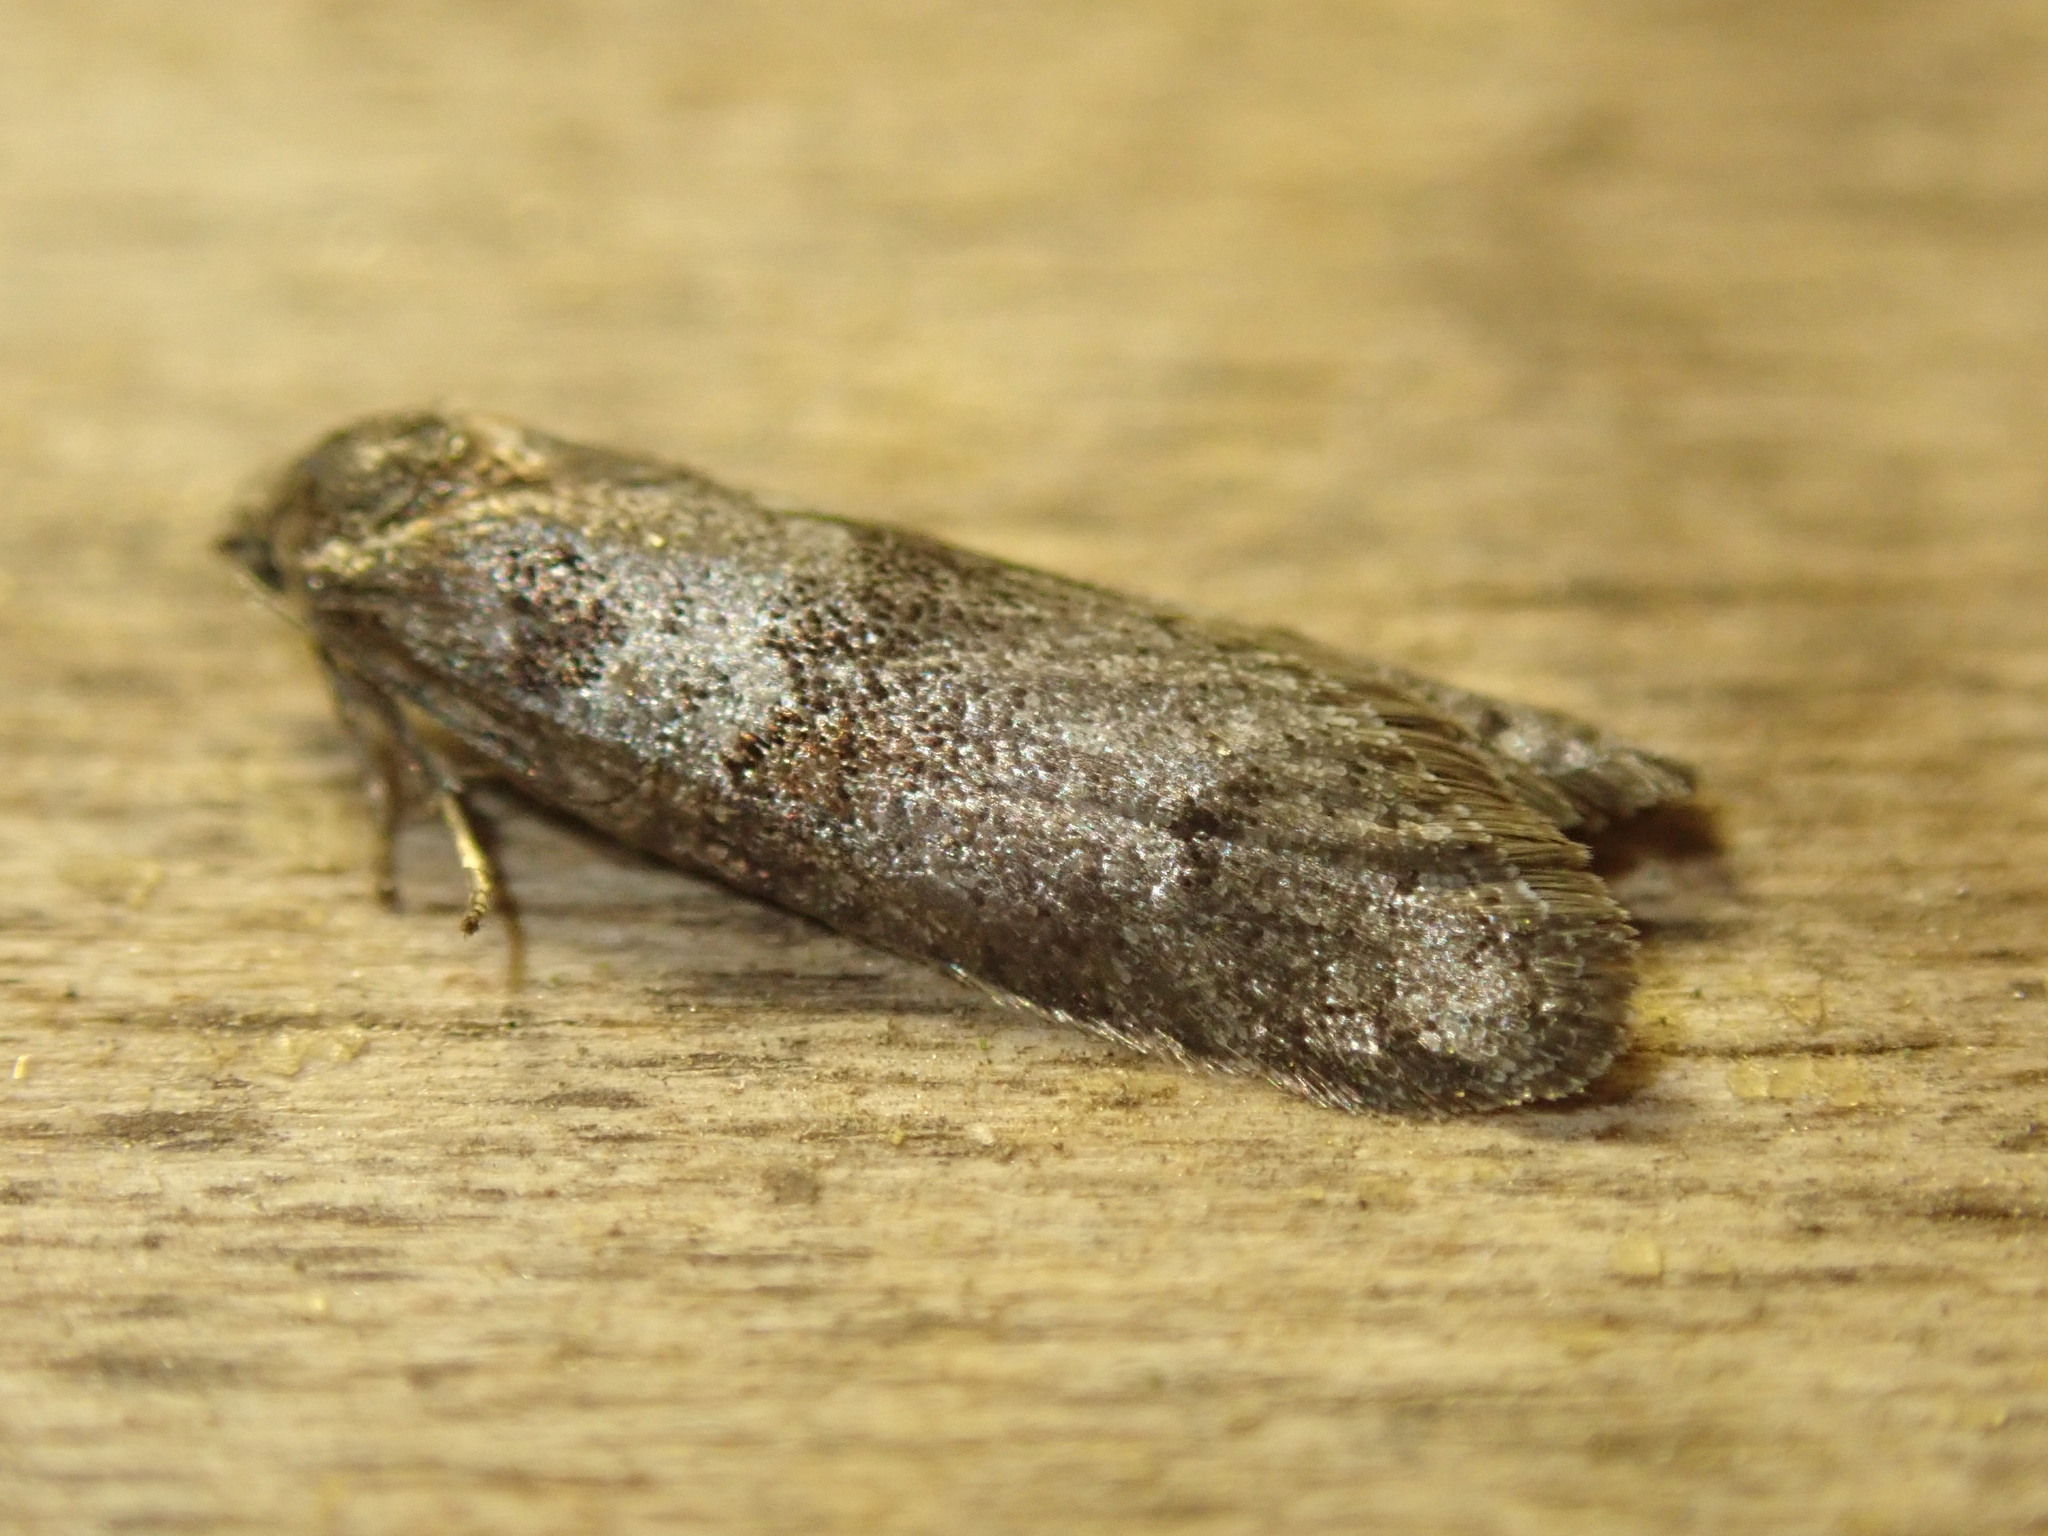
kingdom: Animalia
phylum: Arthropoda
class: Insecta
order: Lepidoptera
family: Tortricidae
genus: Tortricodes
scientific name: Tortricodes alternella
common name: Winter shade
